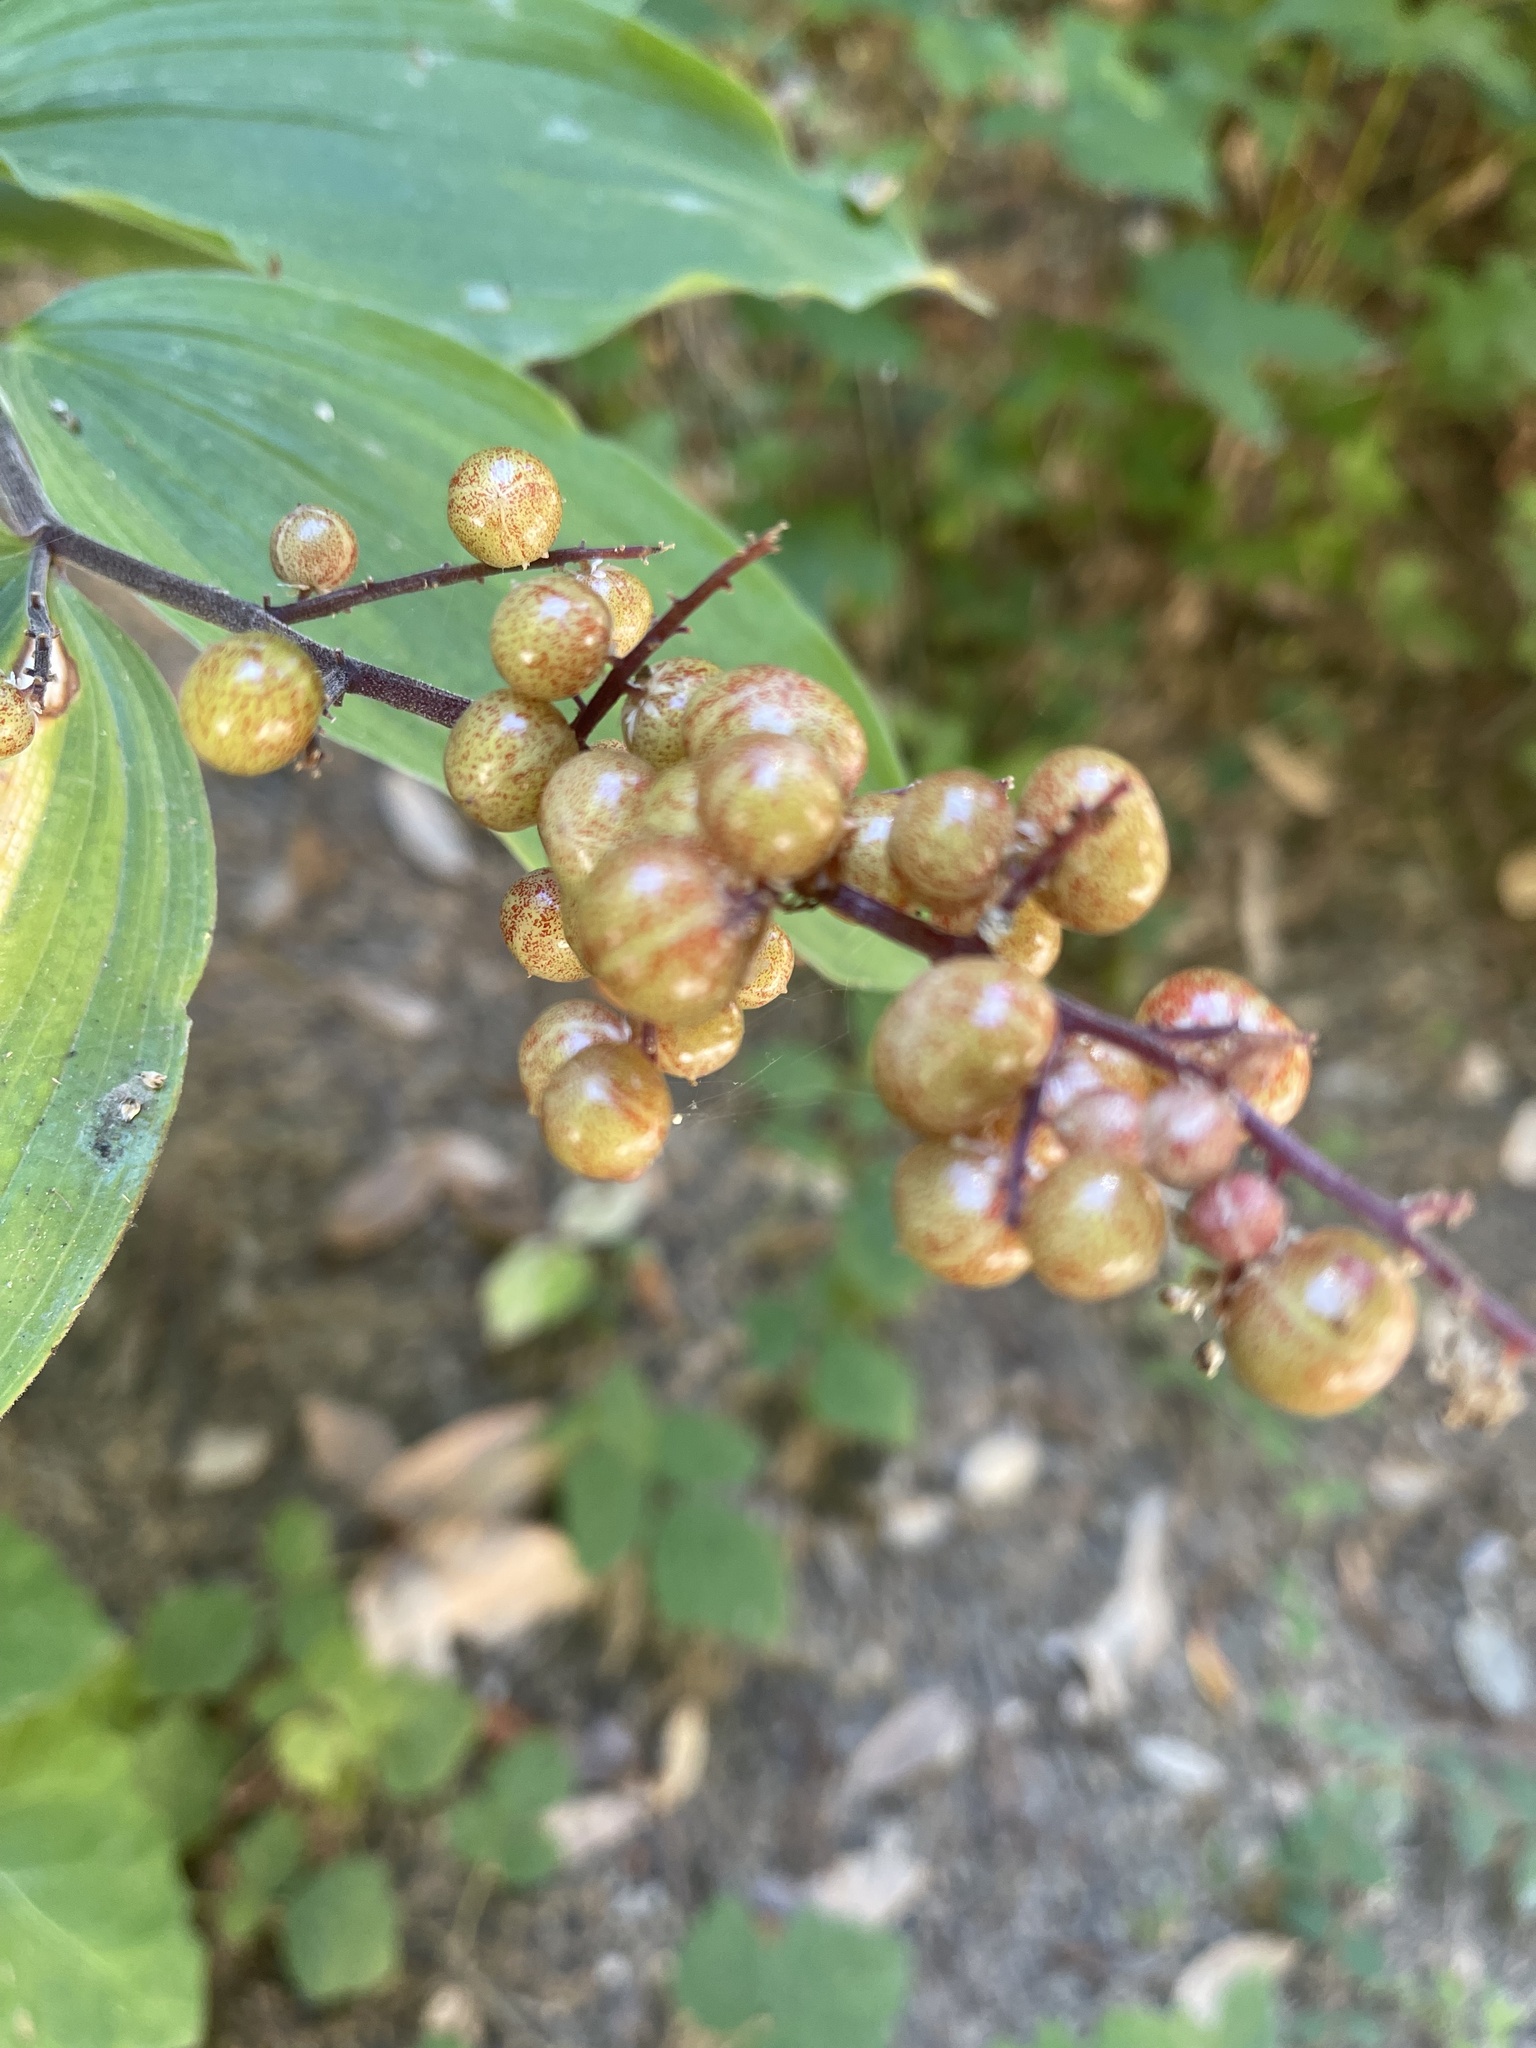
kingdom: Plantae
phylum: Tracheophyta
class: Liliopsida
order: Asparagales
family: Asparagaceae
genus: Maianthemum
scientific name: Maianthemum racemosum
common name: False spikenard
